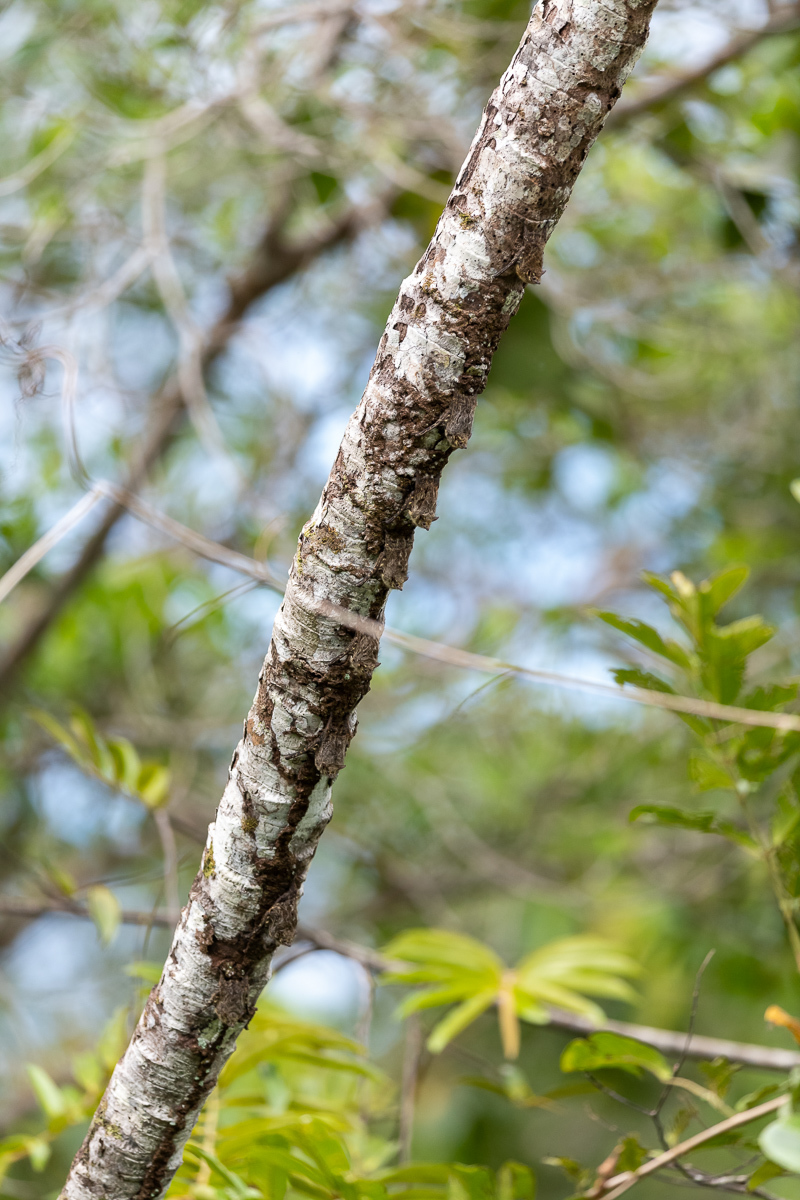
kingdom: Animalia
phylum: Chordata
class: Mammalia
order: Chiroptera
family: Emballonuridae
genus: Rhynchonycteris
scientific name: Rhynchonycteris naso
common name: Proboscis bat
